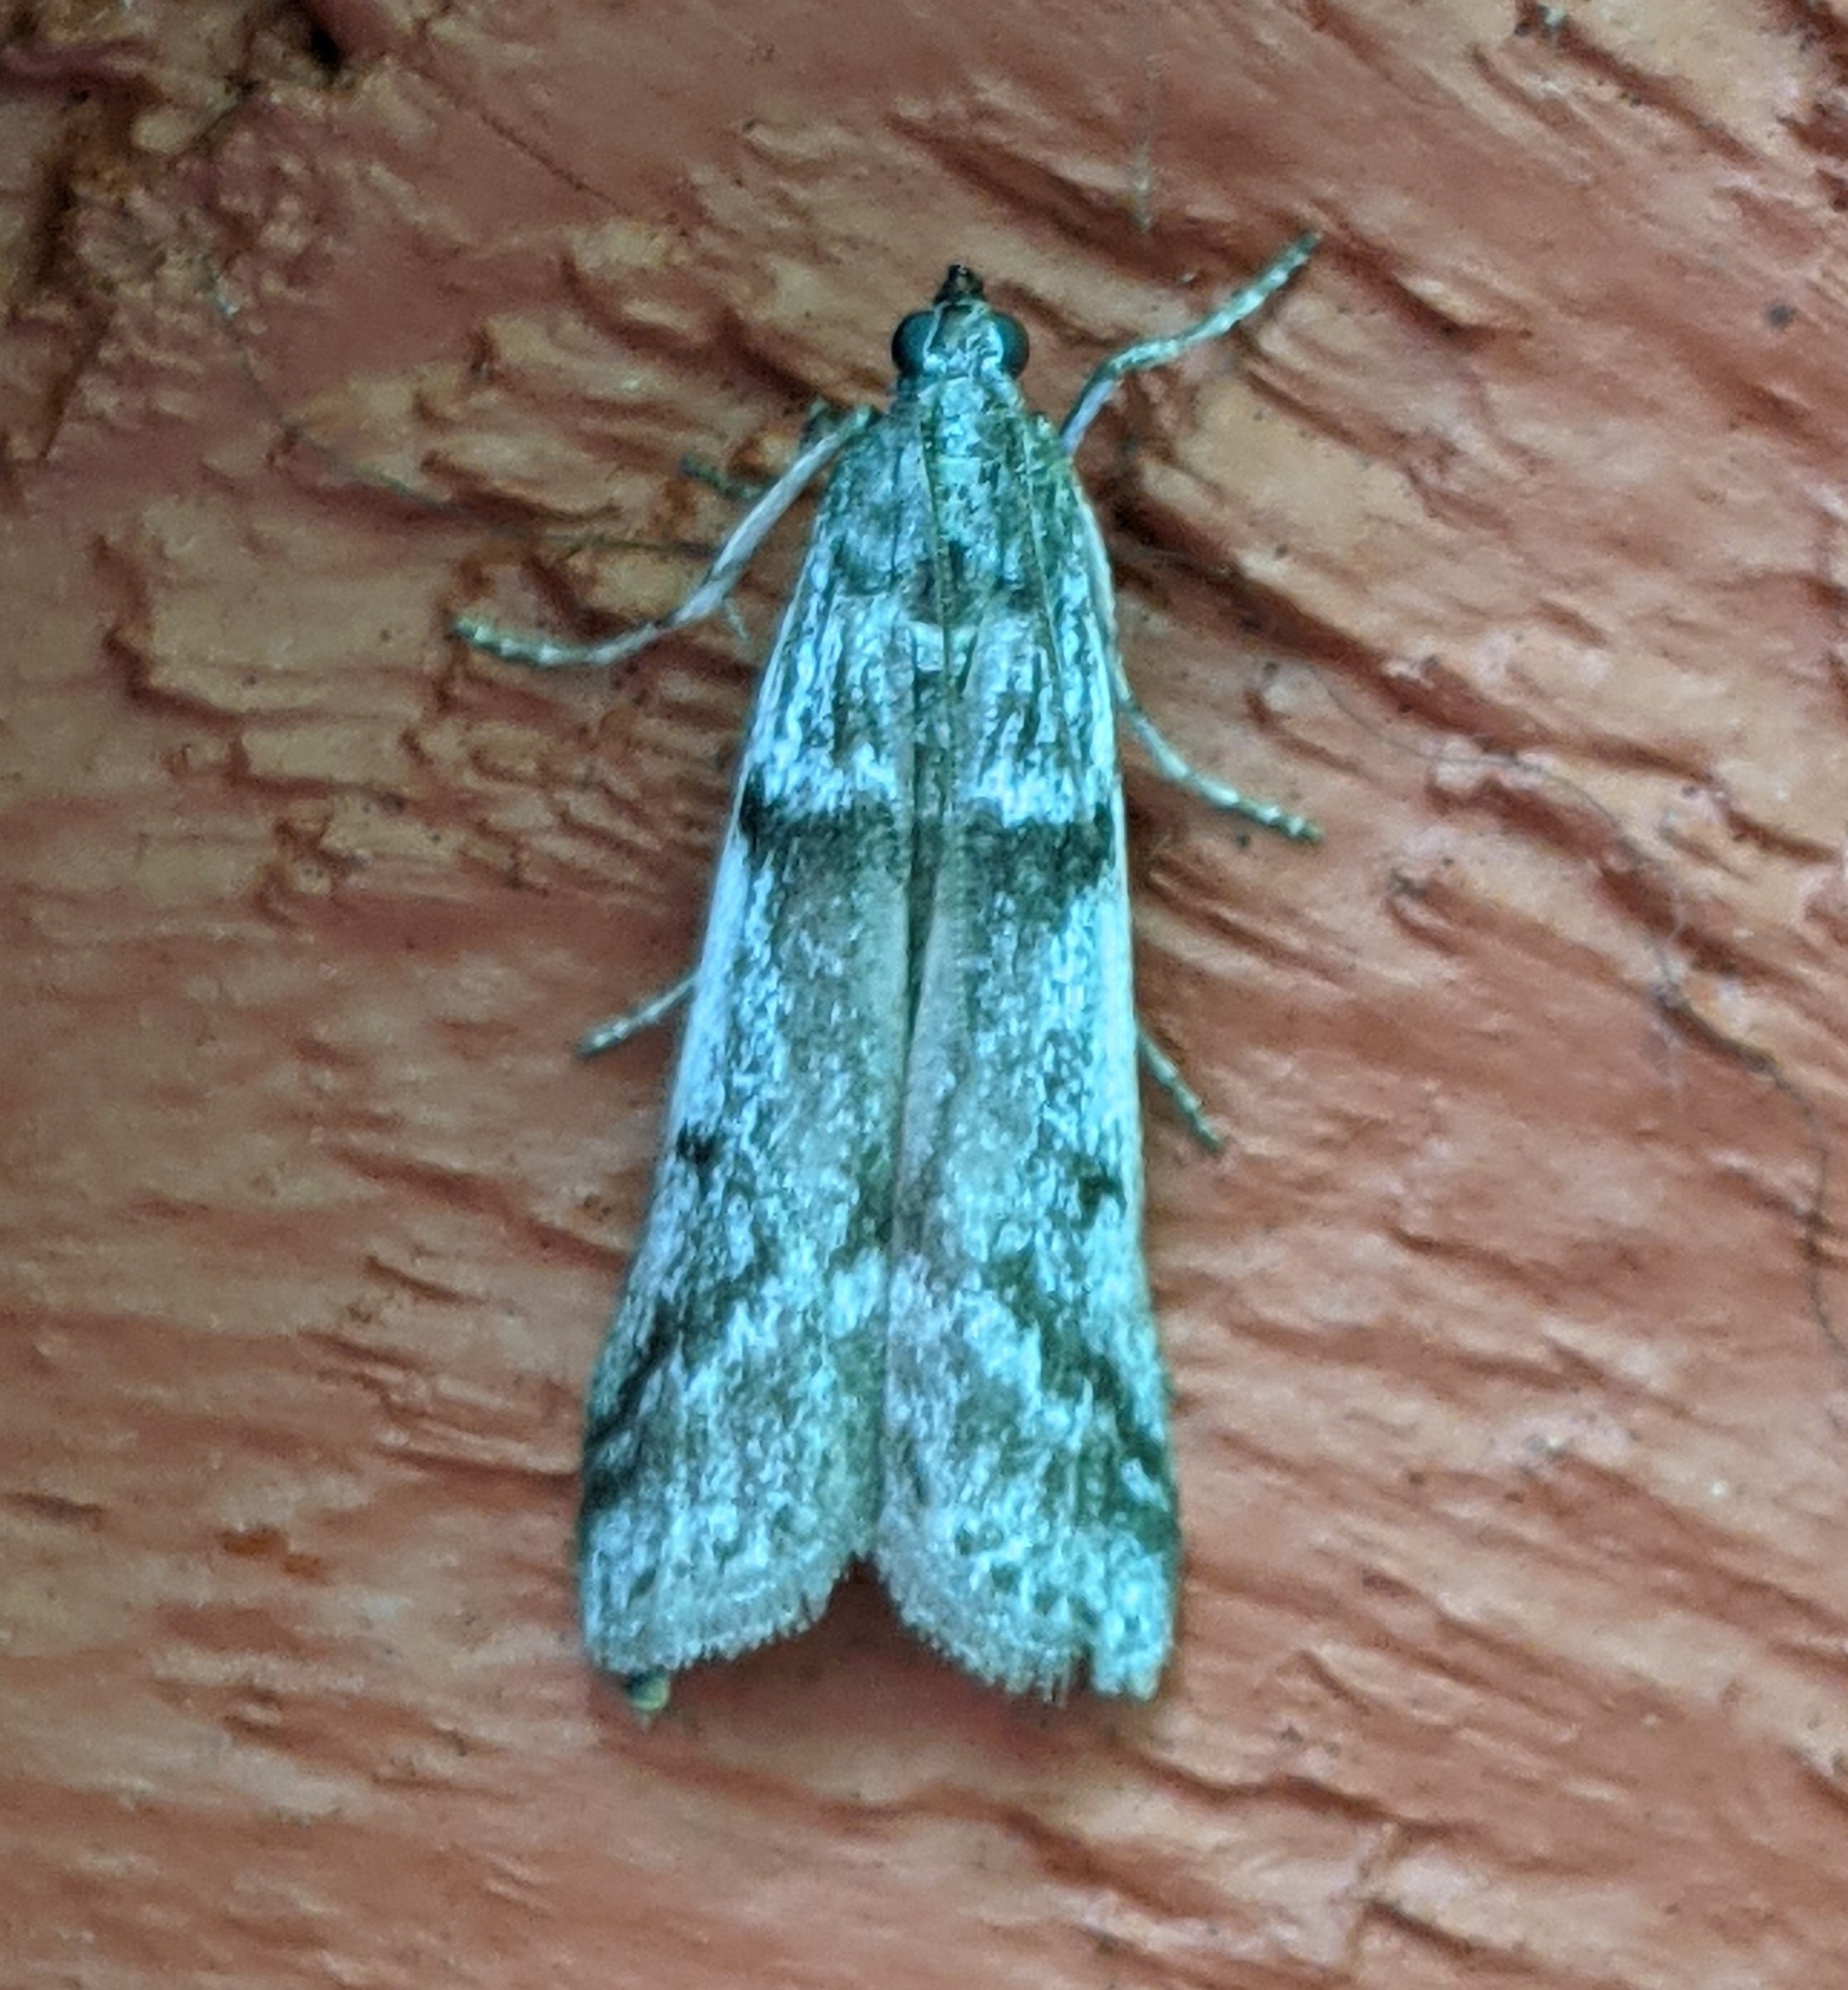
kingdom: Animalia
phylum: Arthropoda
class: Insecta
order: Lepidoptera
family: Pyralidae
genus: Zophodia
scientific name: Zophodia convolutella
